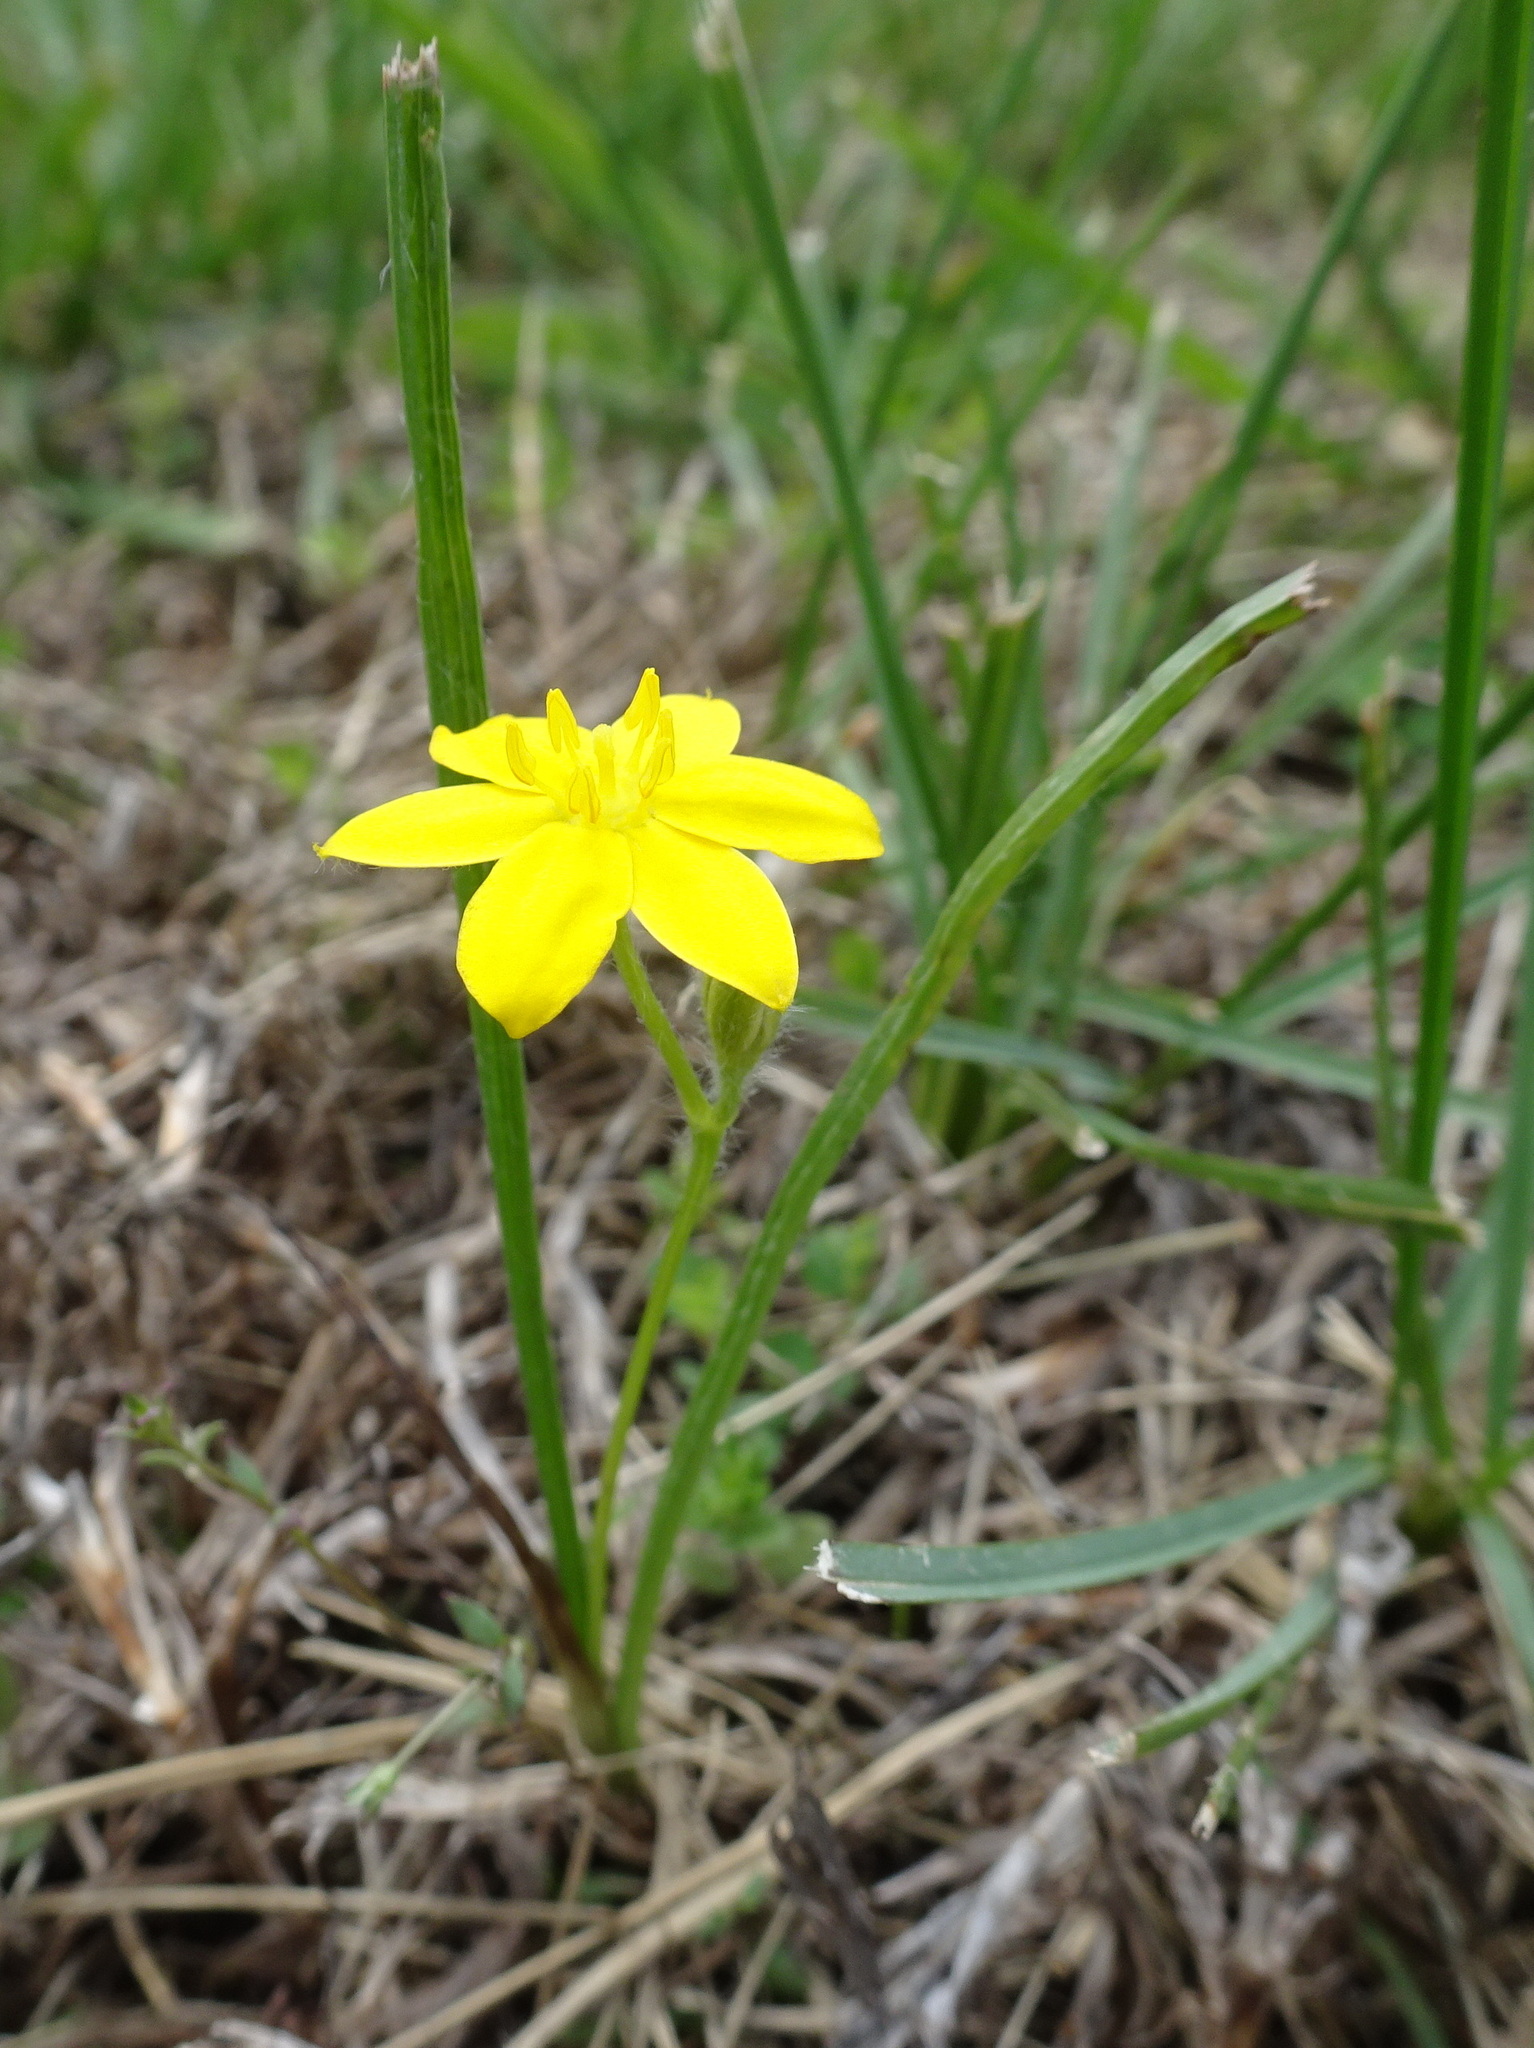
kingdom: Plantae
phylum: Tracheophyta
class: Liliopsida
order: Asparagales
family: Hypoxidaceae
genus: Hypoxis
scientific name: Hypoxis hirsuta
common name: Common goldstar
